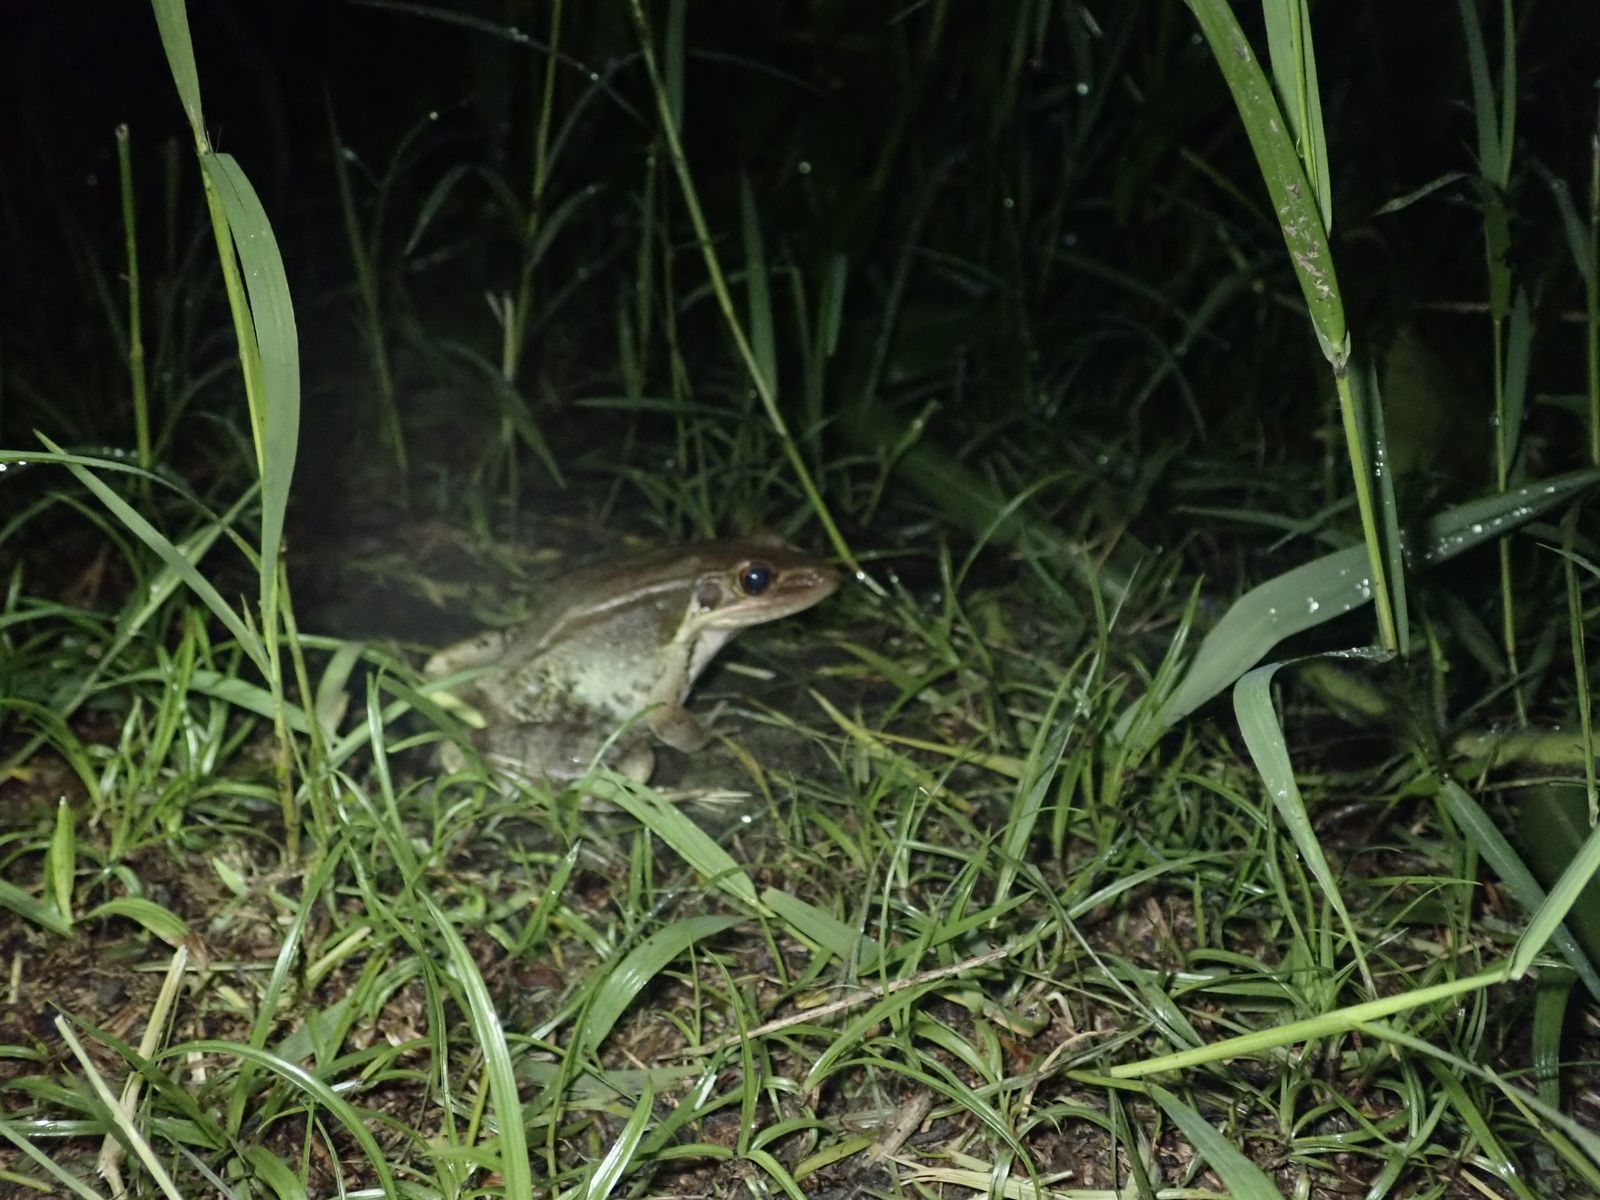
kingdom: Animalia
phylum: Chordata
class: Amphibia
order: Anura
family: Ranidae
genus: Sylvirana
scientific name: Sylvirana guentheri
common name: Guenther's amoy frog
